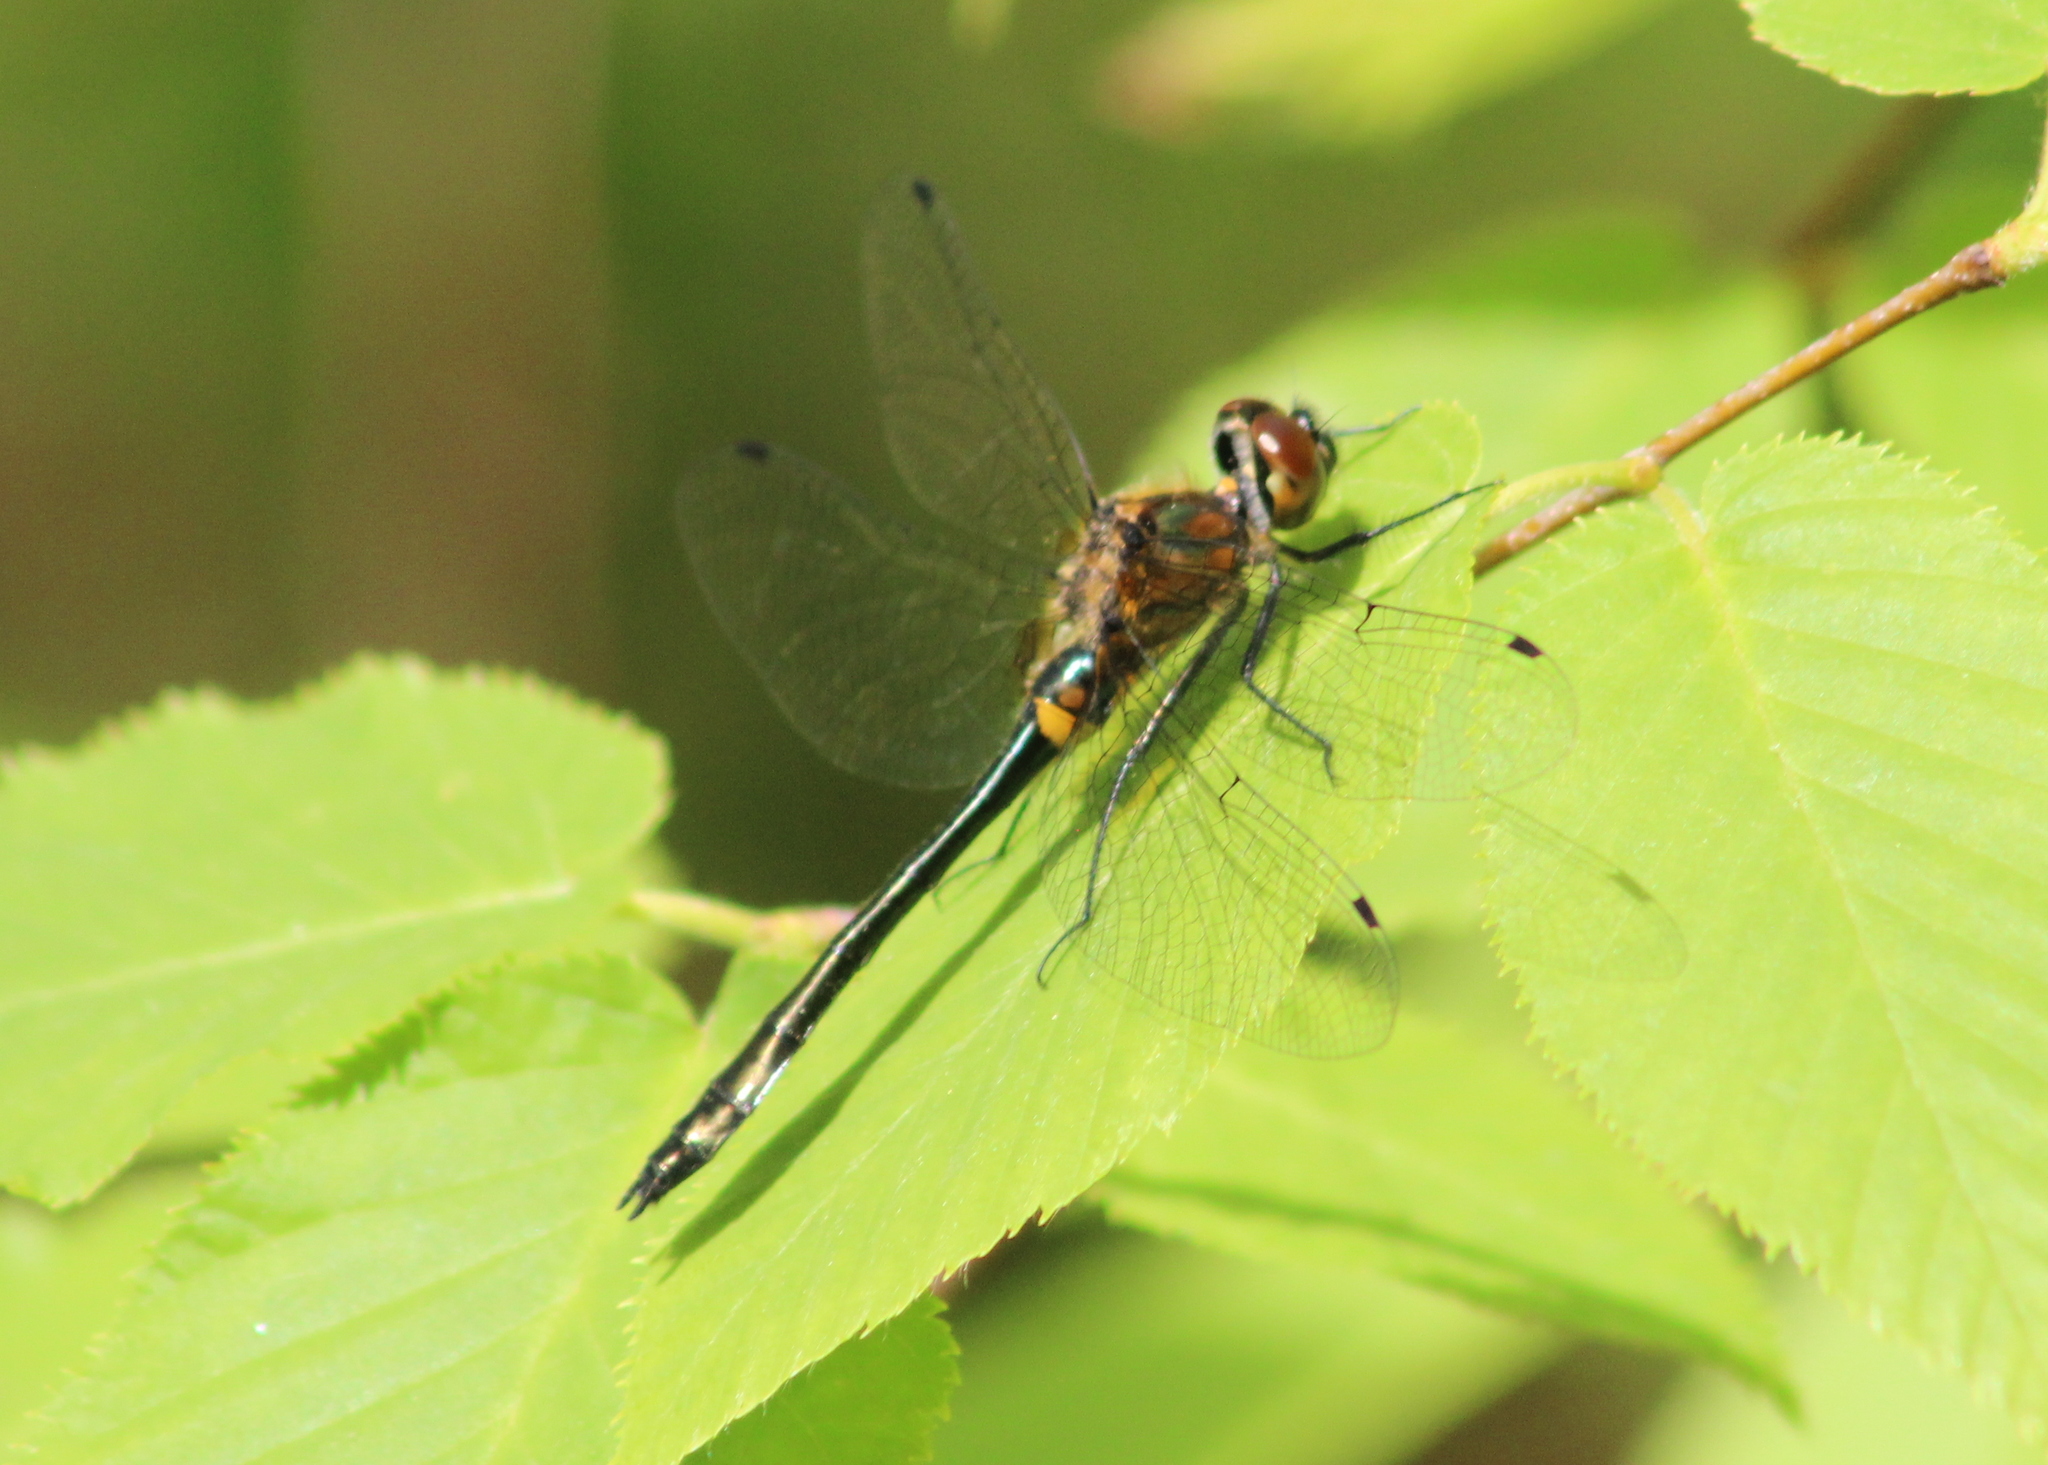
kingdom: Animalia
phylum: Arthropoda
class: Insecta
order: Odonata
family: Corduliidae
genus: Dorocordulia
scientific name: Dorocordulia libera
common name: Racket-tailed emerald
